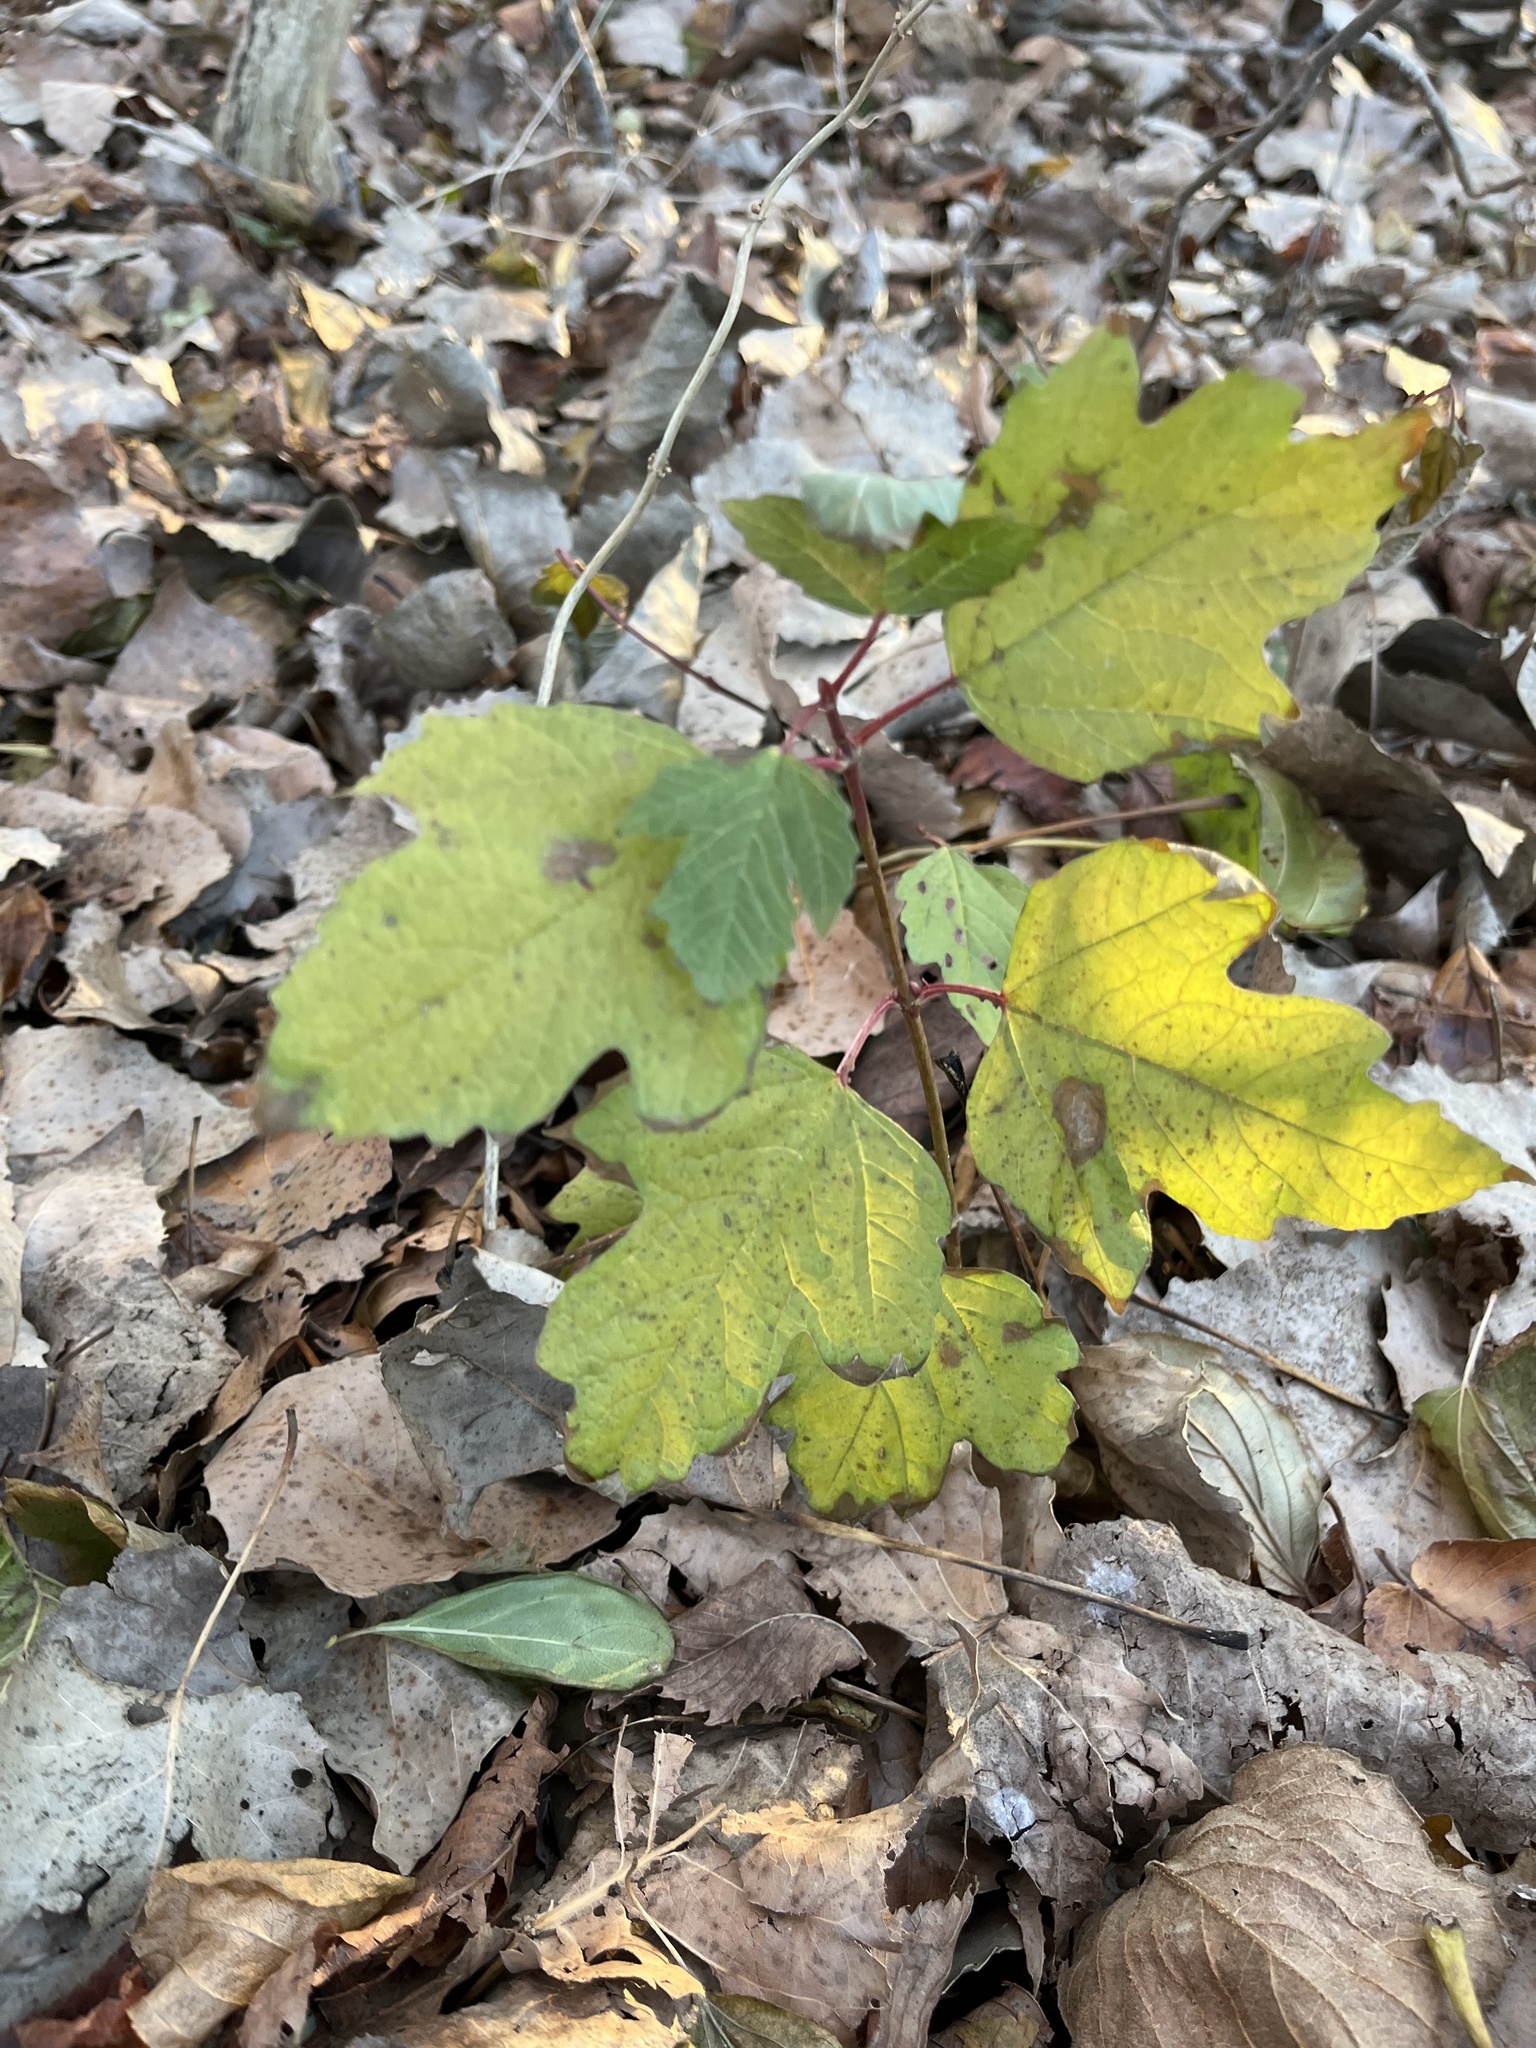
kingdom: Plantae
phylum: Tracheophyta
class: Magnoliopsida
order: Dipsacales
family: Viburnaceae
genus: Viburnum
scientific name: Viburnum opulus
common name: Guelder-rose
